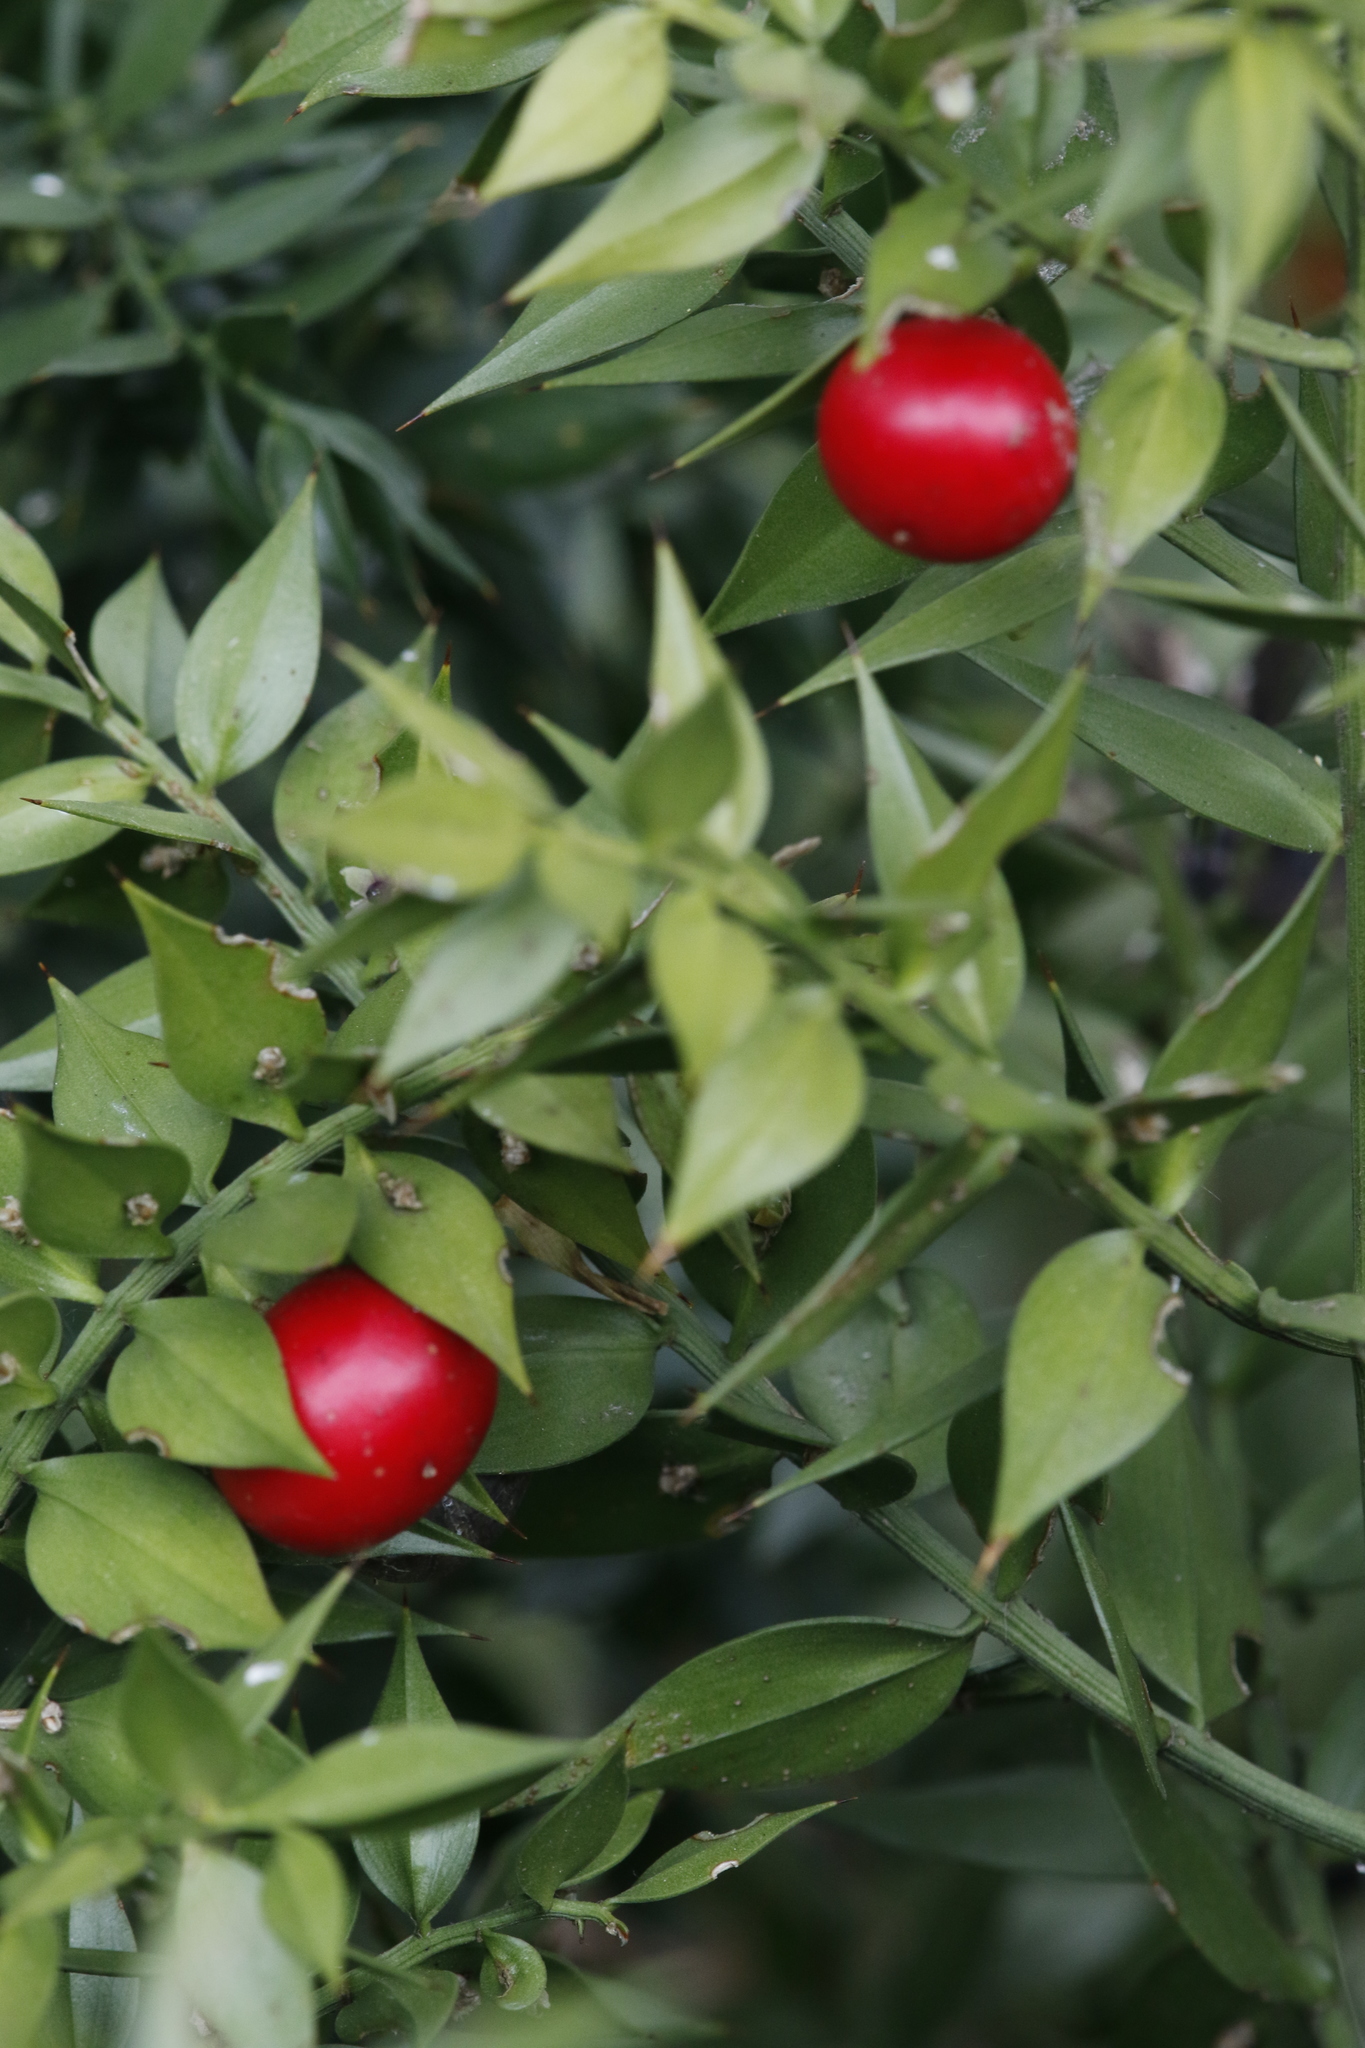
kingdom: Plantae
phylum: Tracheophyta
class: Liliopsida
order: Asparagales
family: Asparagaceae
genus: Ruscus
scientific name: Ruscus aculeatus
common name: Butcher's-broom
